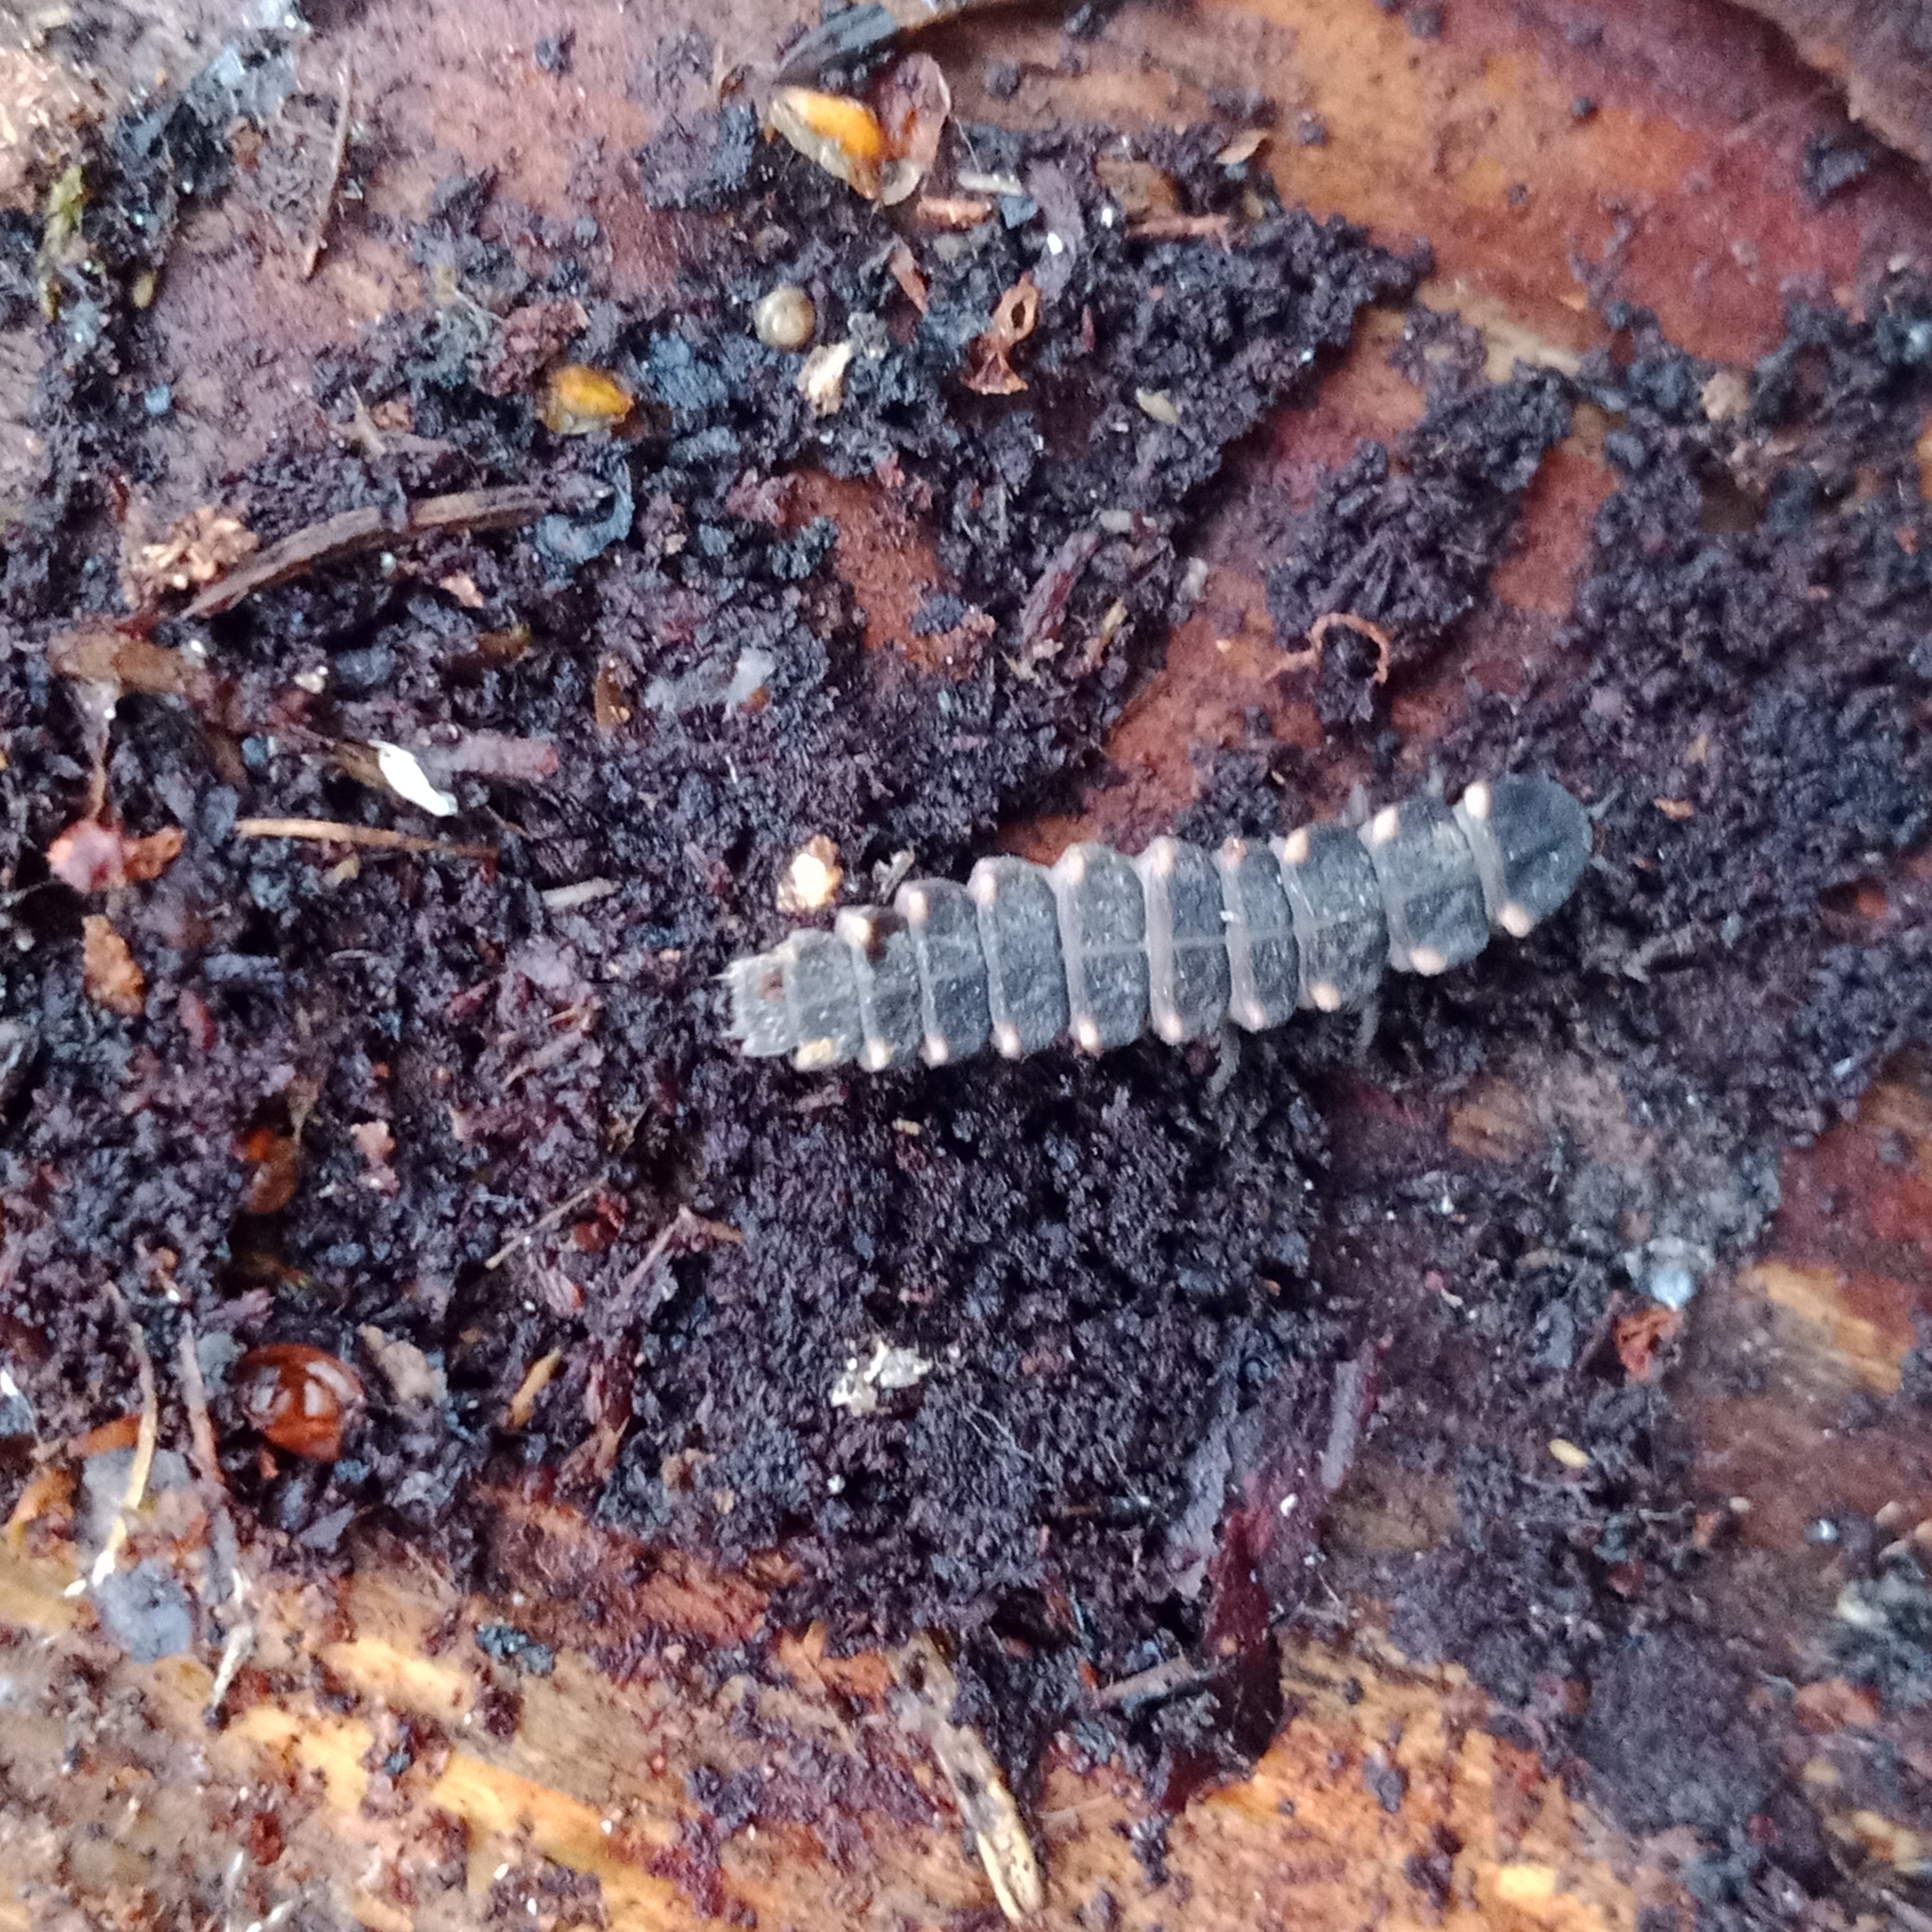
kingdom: Animalia
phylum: Arthropoda
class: Insecta
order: Coleoptera
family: Lampyridae
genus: Lampyris
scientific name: Lampyris noctiluca
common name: Glow-worm
